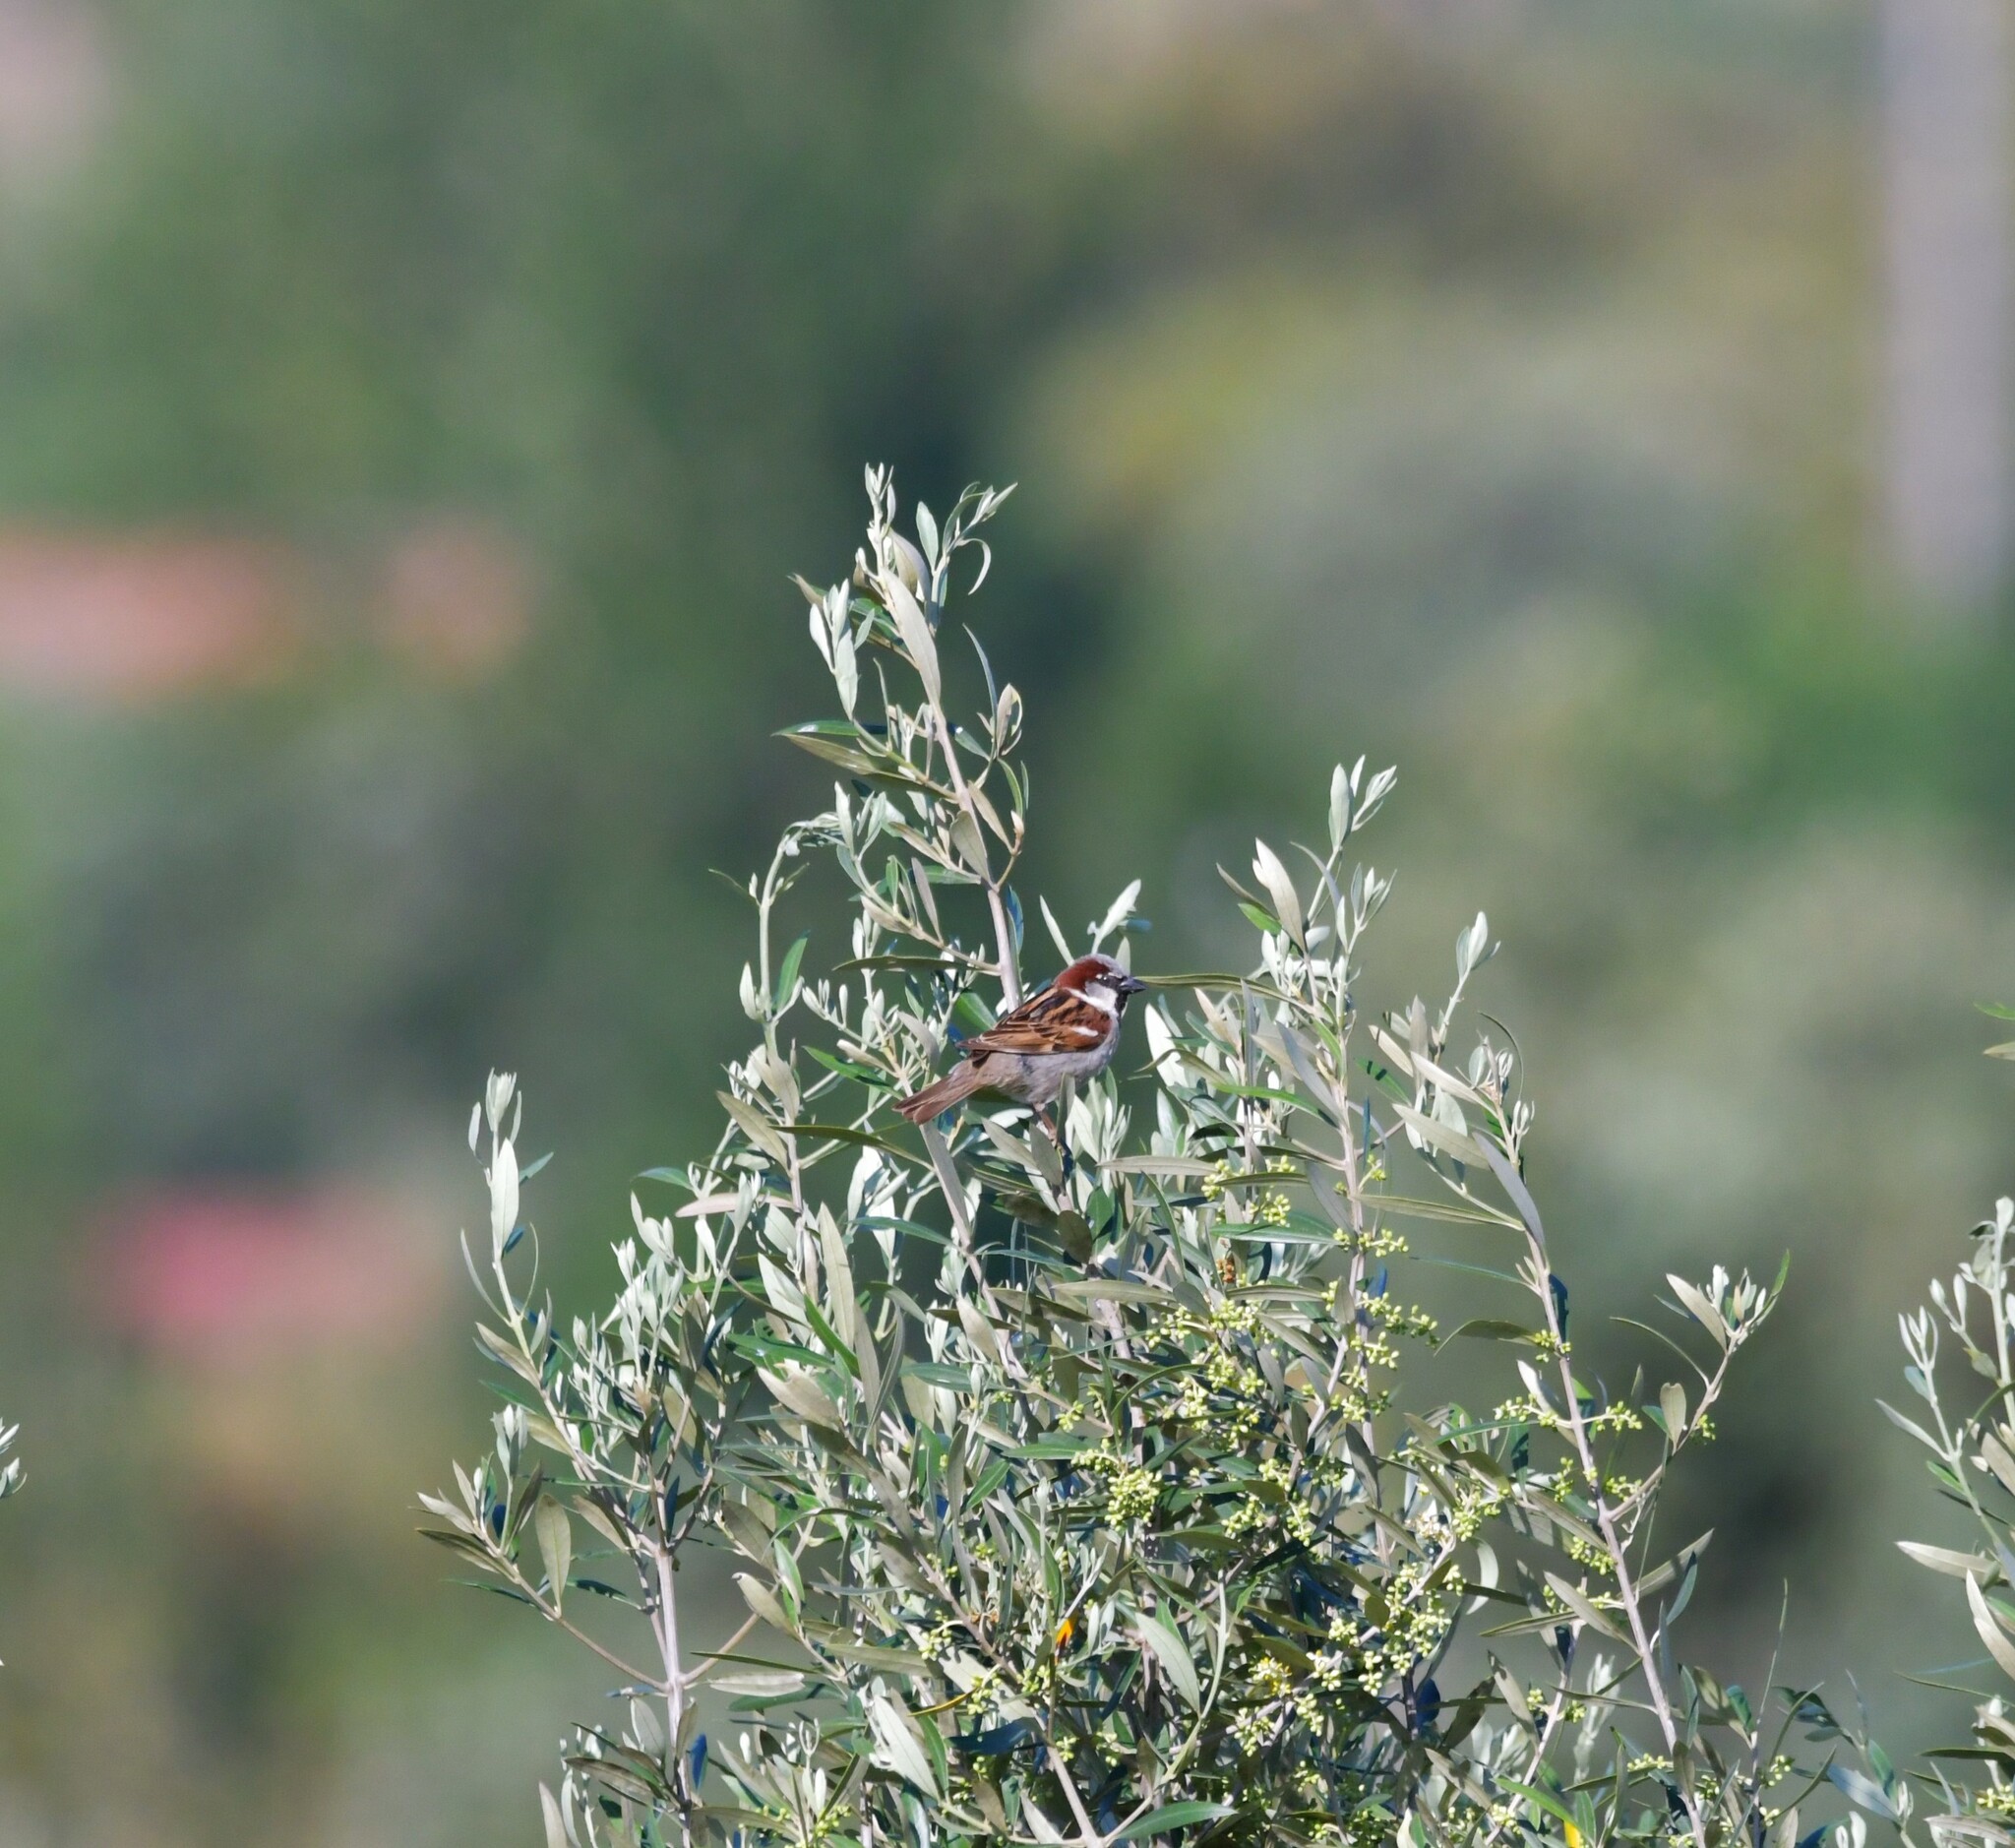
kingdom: Animalia
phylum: Chordata
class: Aves
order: Passeriformes
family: Passeridae
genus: Passer
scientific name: Passer domesticus
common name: House sparrow
